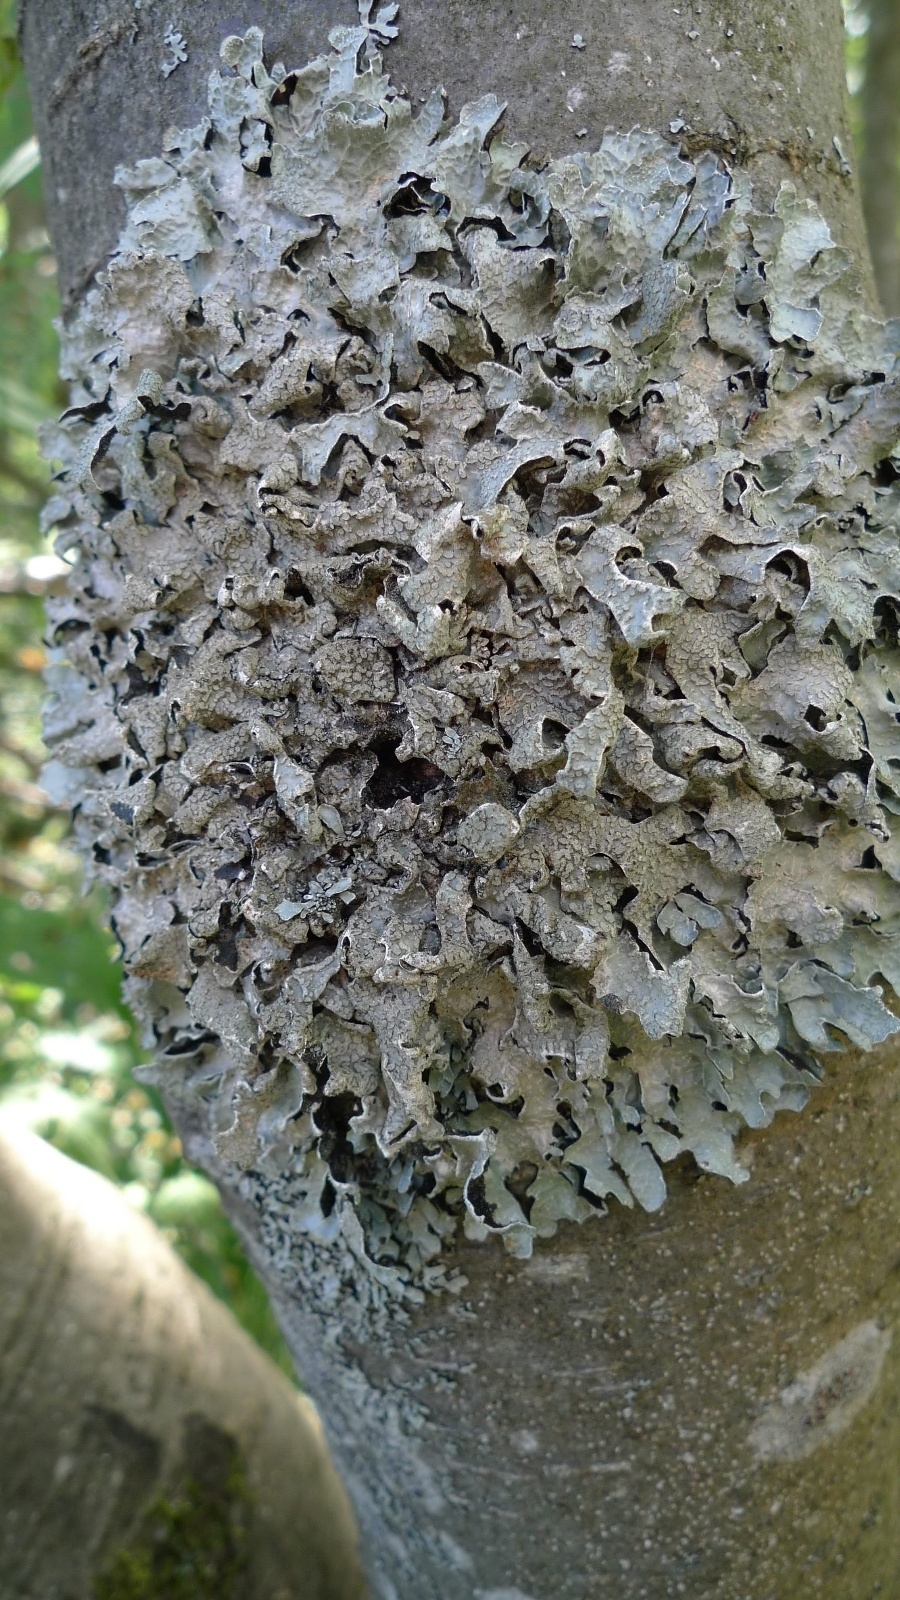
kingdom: Fungi
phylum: Ascomycota
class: Lecanoromycetes
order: Lecanorales
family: Parmeliaceae
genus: Parmelia
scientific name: Parmelia sulcata
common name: Netted shield lichen
